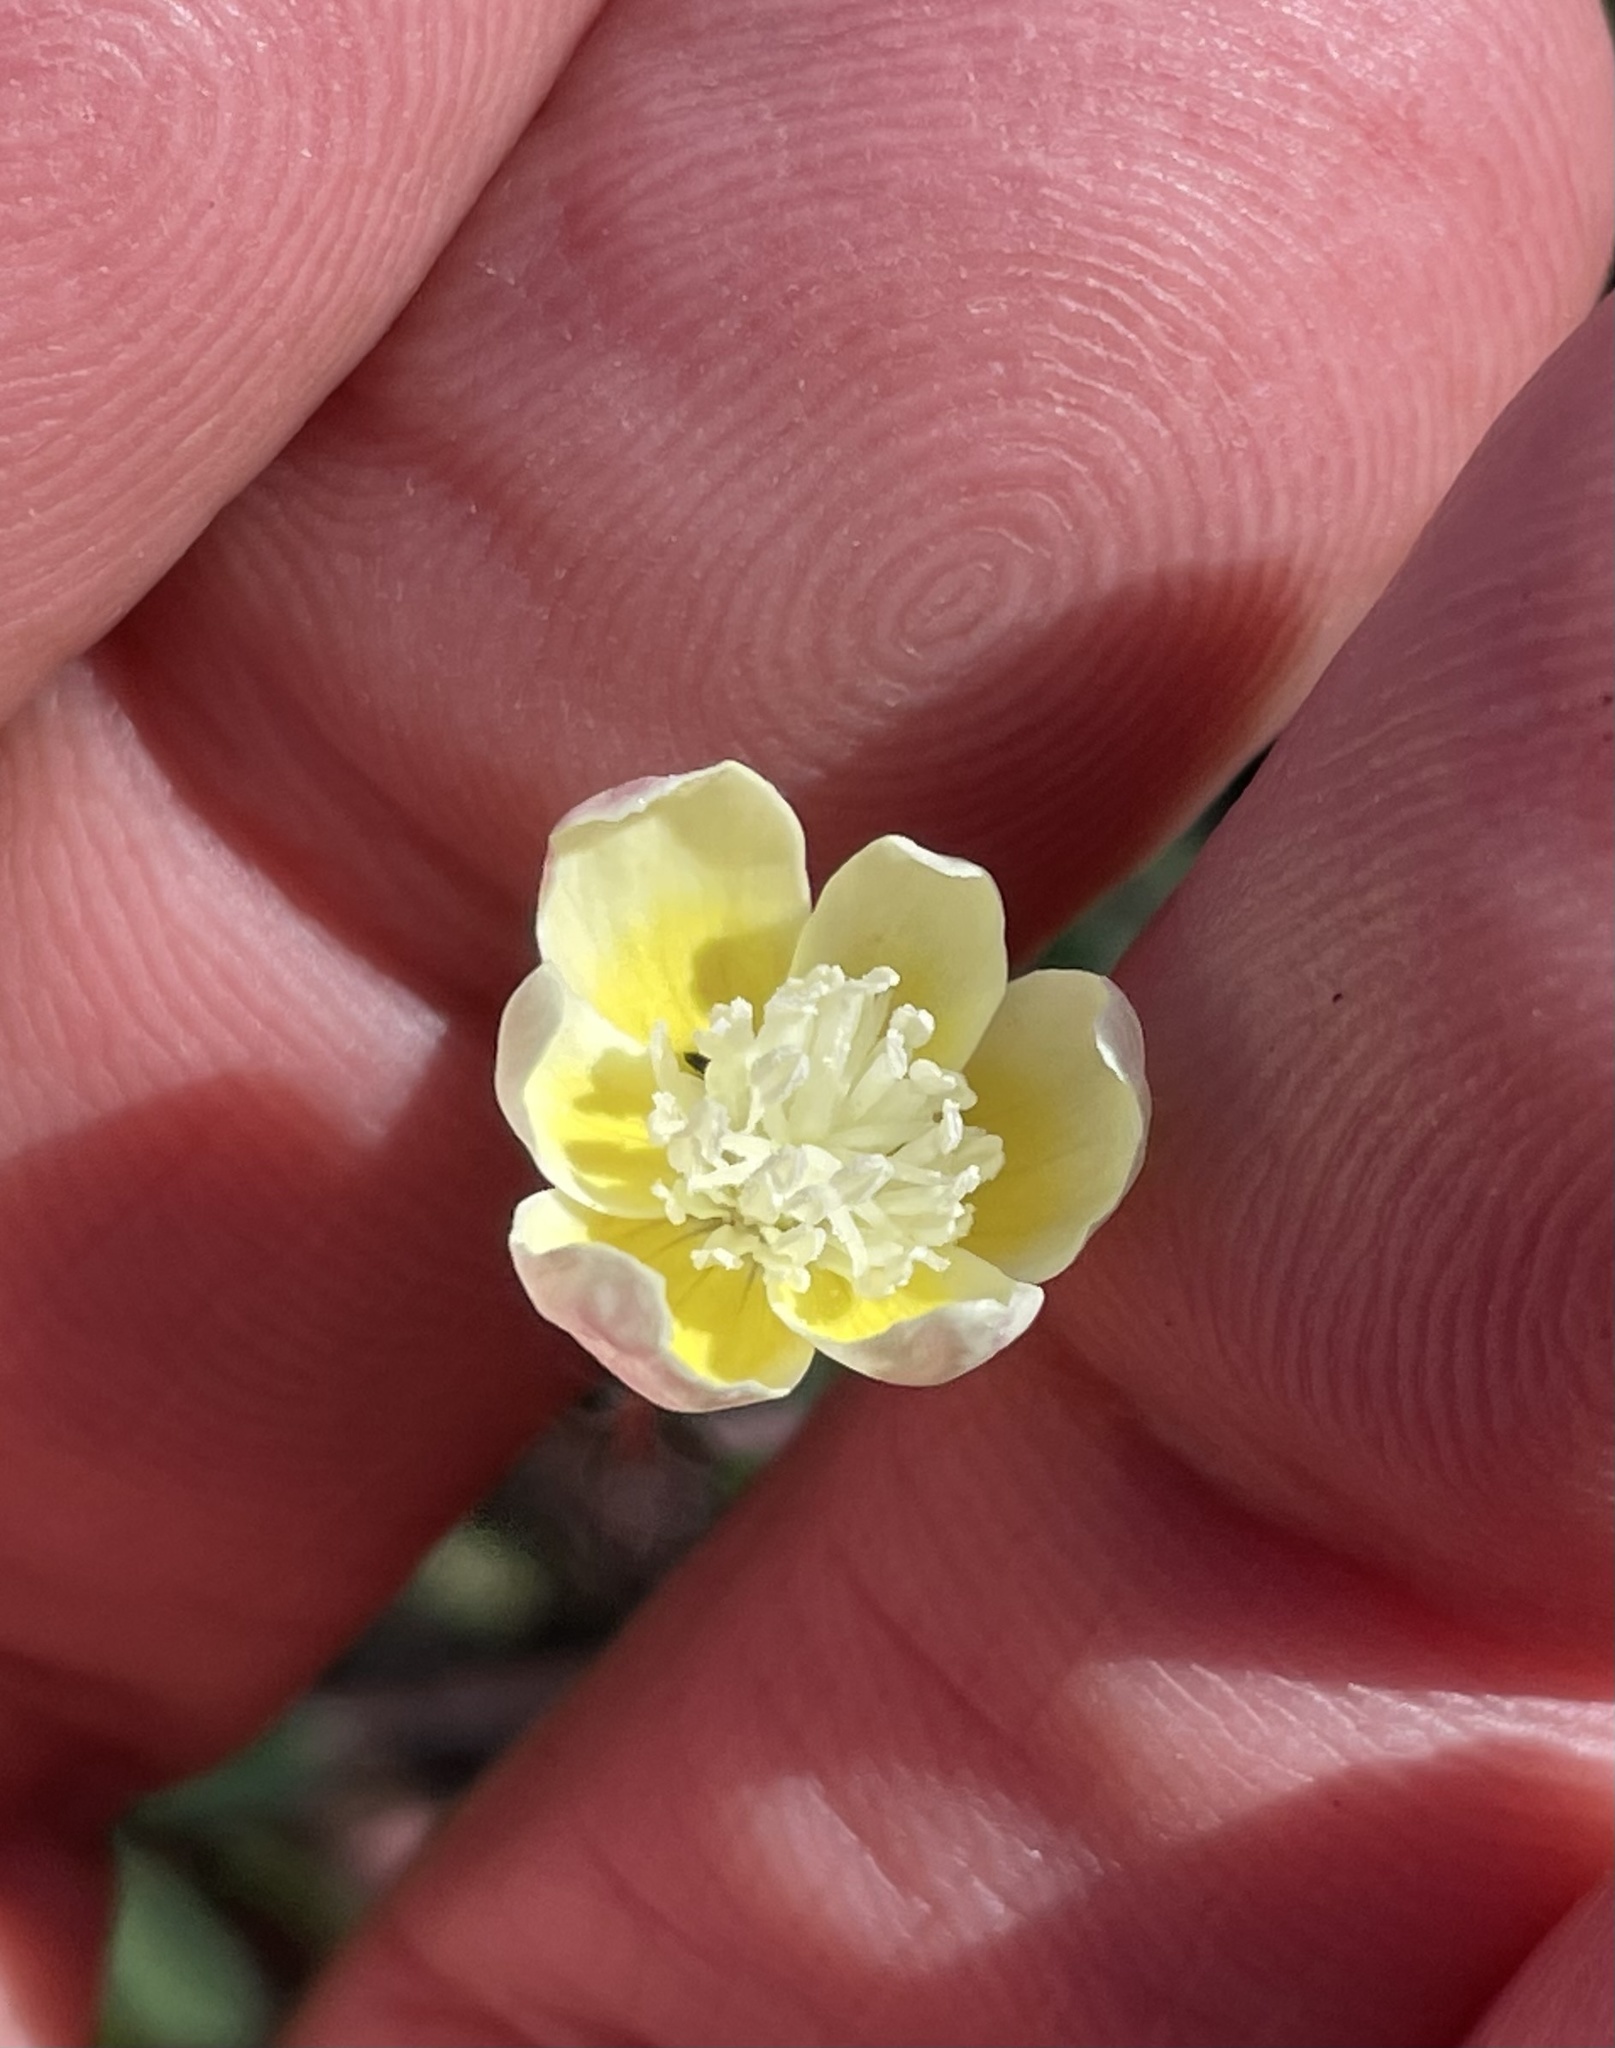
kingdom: Plantae
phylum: Tracheophyta
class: Magnoliopsida
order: Ranunculales
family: Papaveraceae
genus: Platystemon
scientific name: Platystemon californicus
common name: Cream-cups
